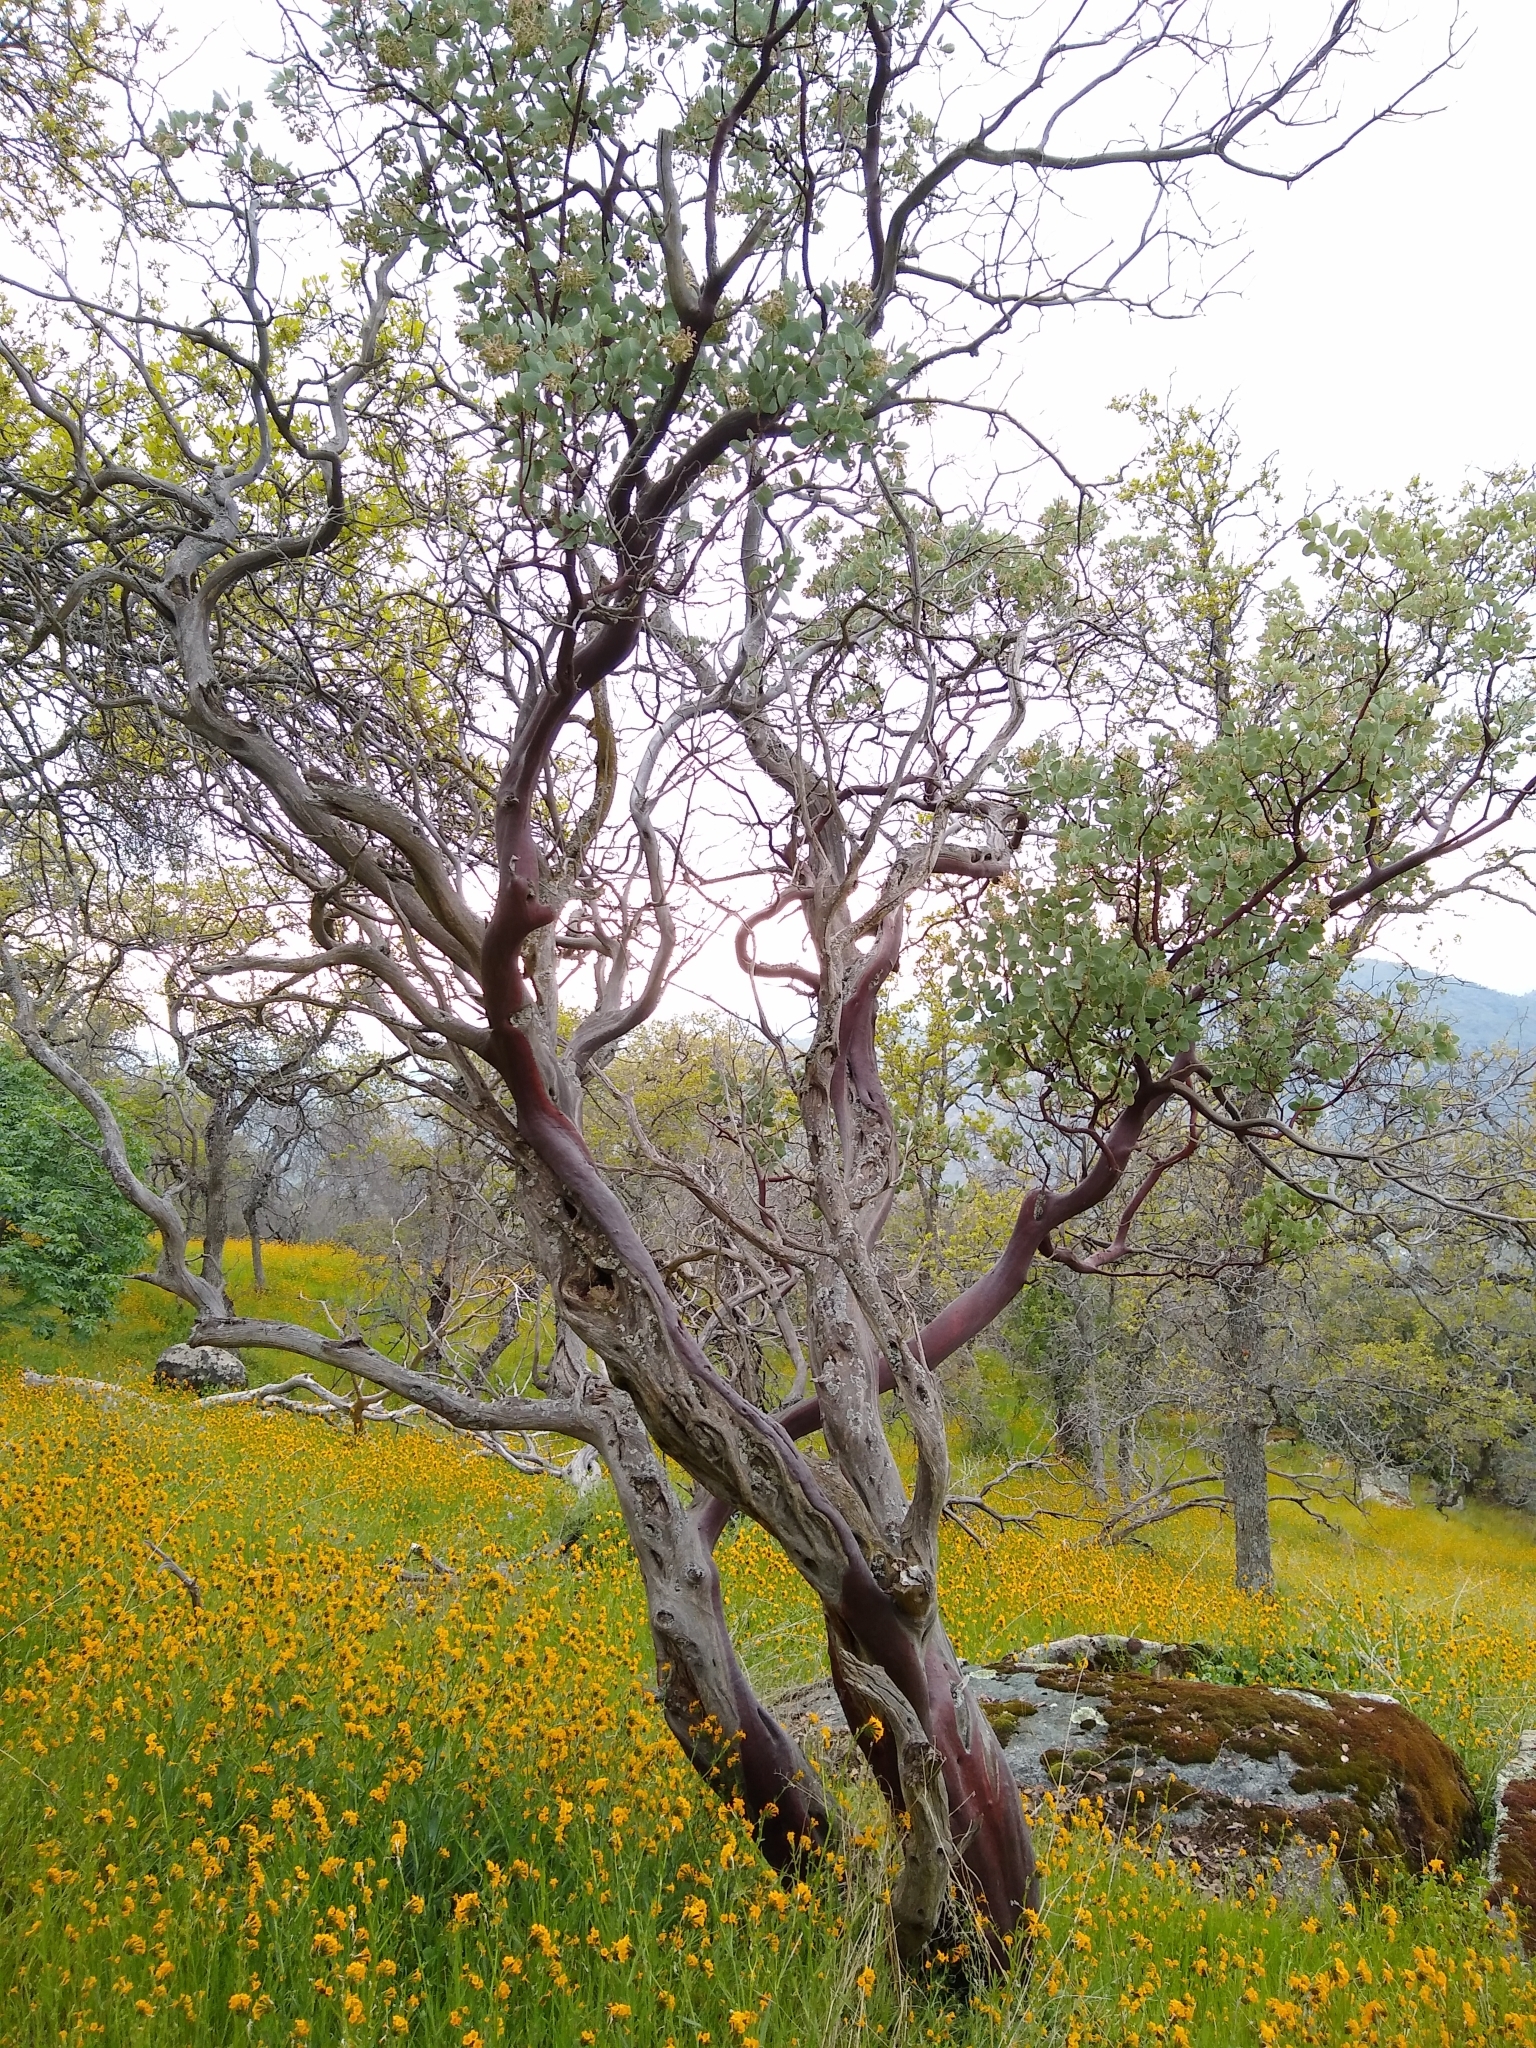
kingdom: Plantae
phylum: Tracheophyta
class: Magnoliopsida
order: Ericales
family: Ericaceae
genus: Arctostaphylos
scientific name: Arctostaphylos viscida
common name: White-leaf manzanita
